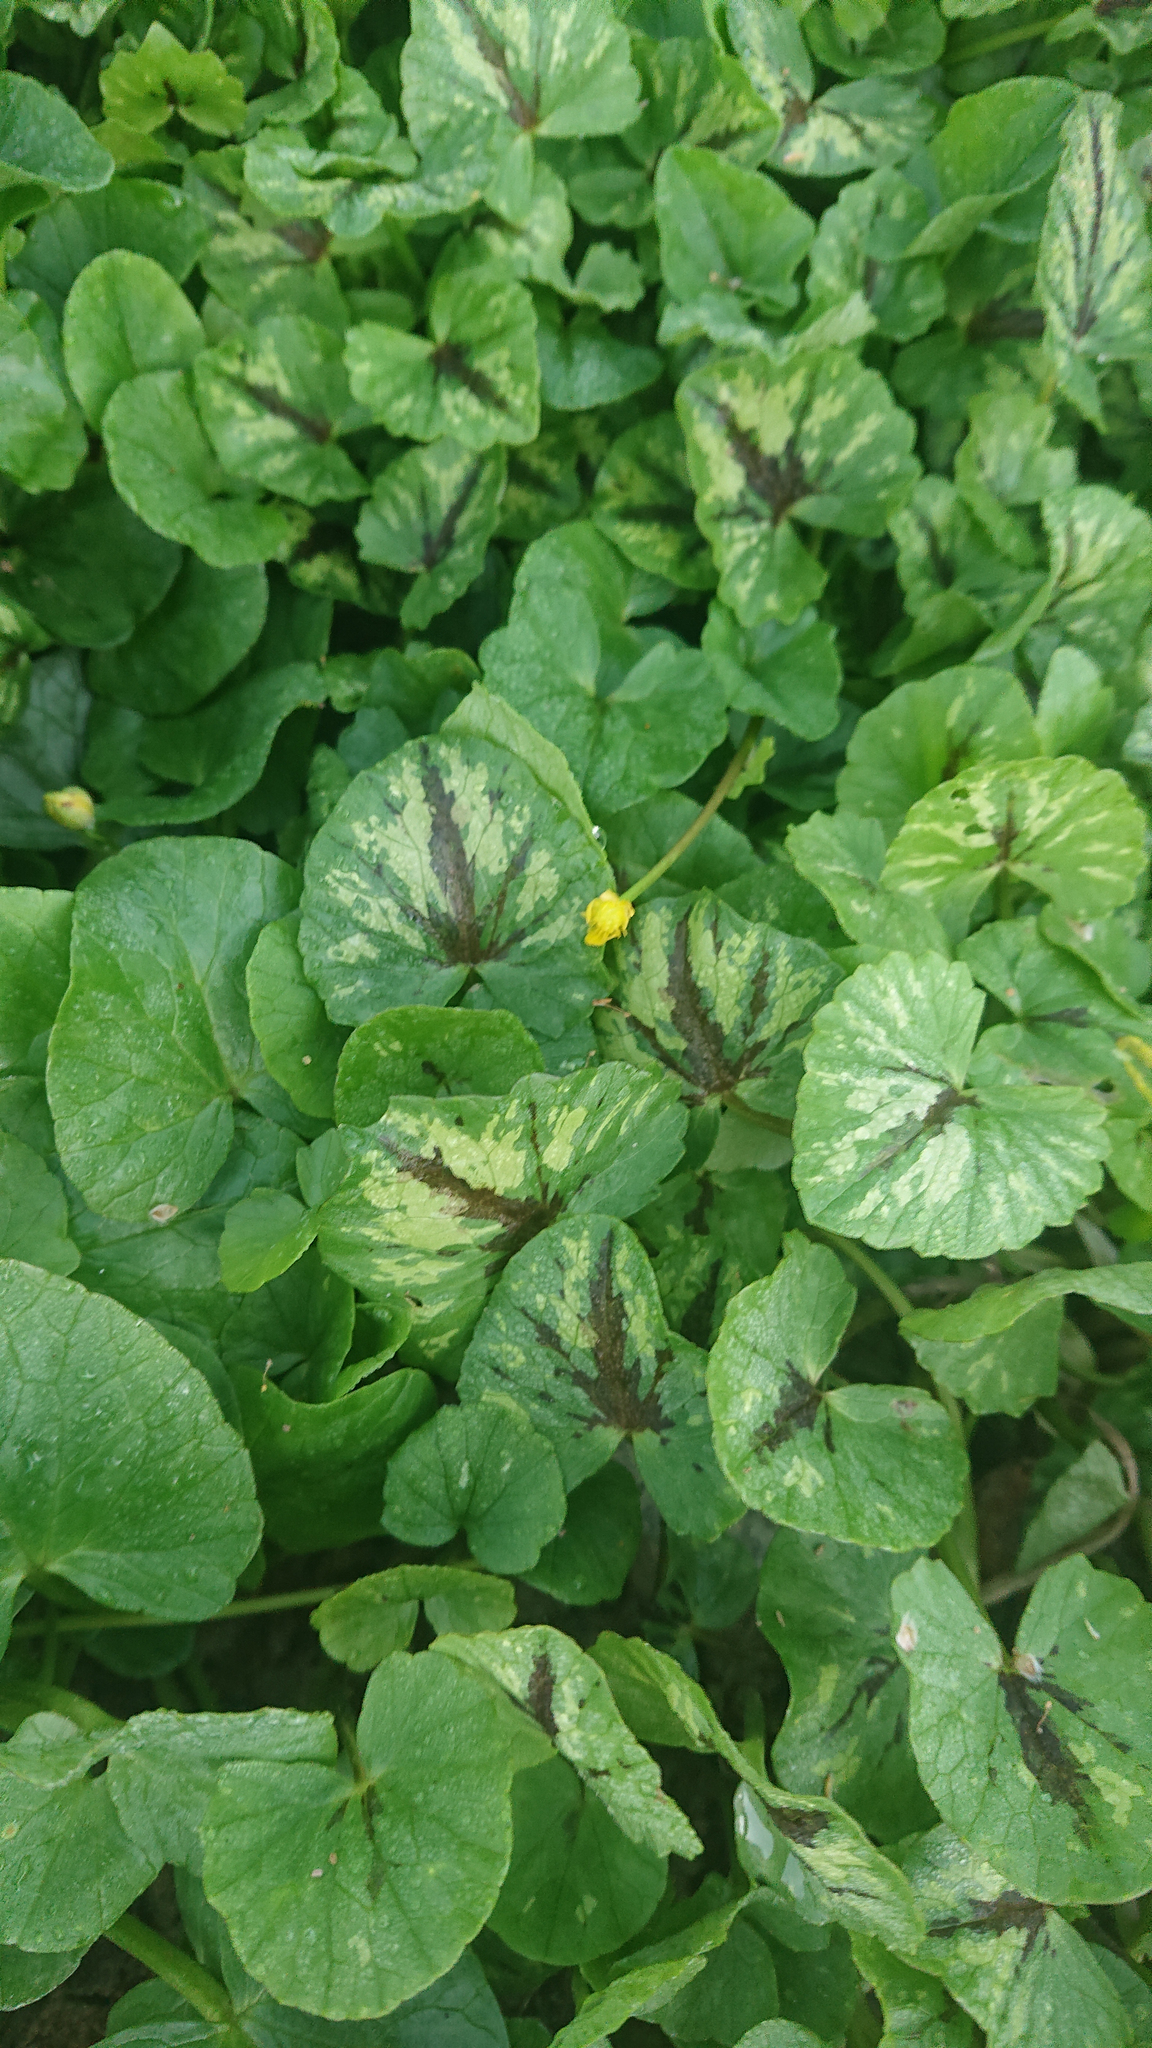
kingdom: Plantae
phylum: Tracheophyta
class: Magnoliopsida
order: Ranunculales
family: Ranunculaceae
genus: Ficaria
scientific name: Ficaria verna
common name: Lesser celandine
